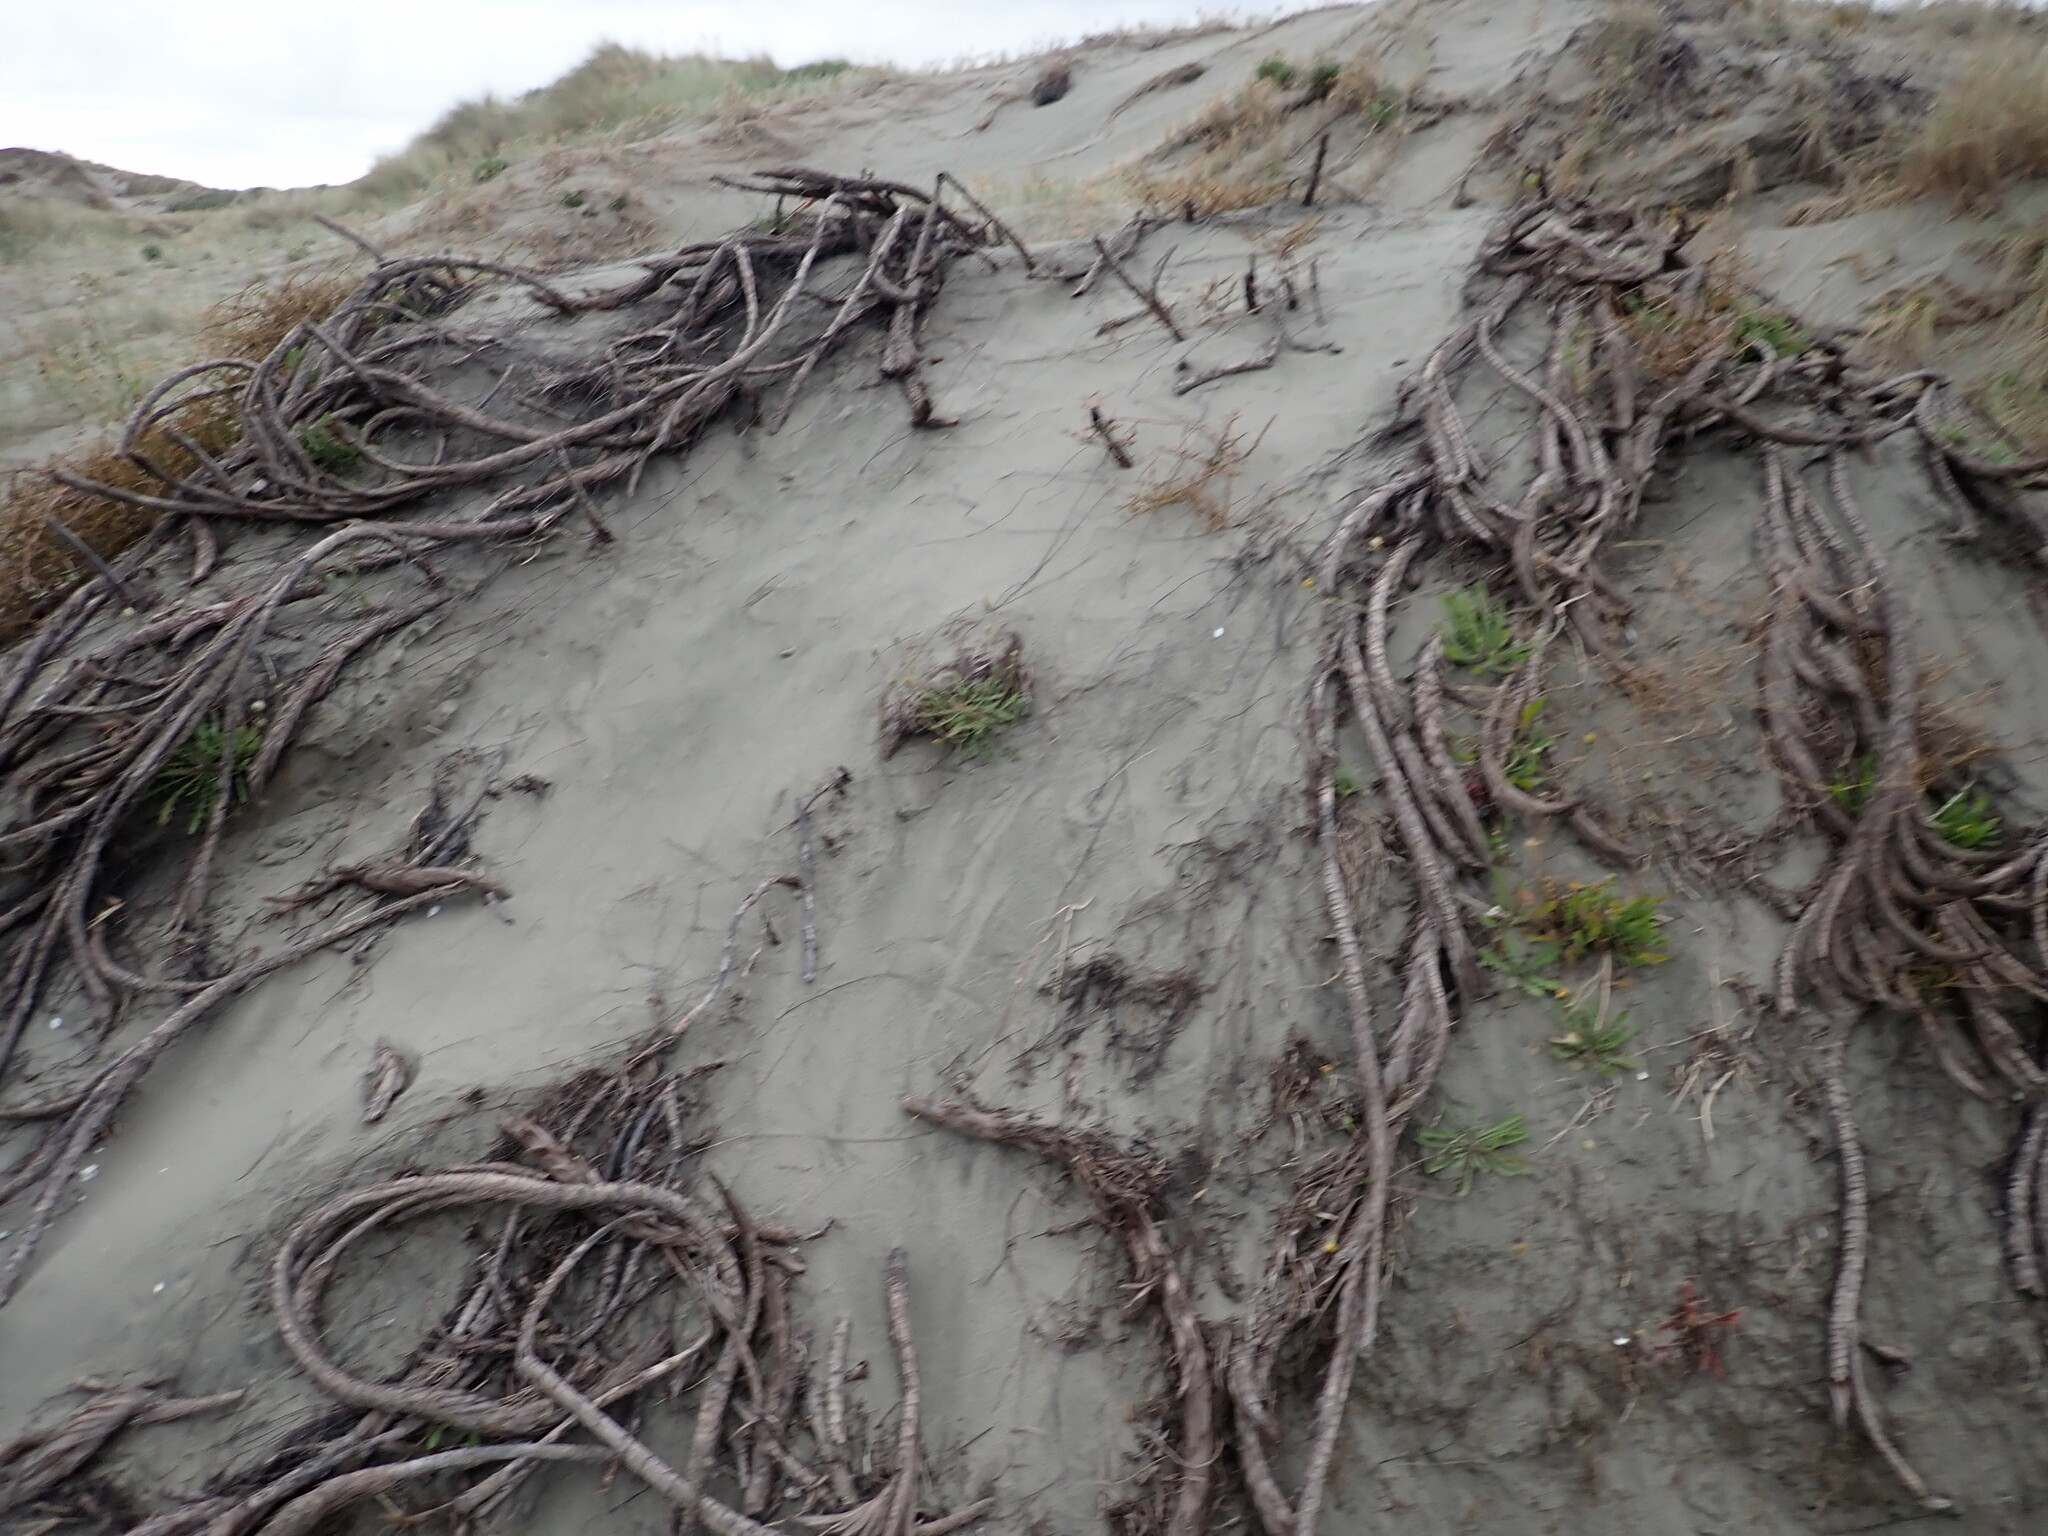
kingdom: Plantae
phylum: Tracheophyta
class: Magnoliopsida
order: Gentianales
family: Rubiaceae
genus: Coprosma
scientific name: Coprosma acerosa
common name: Sand coprosma
